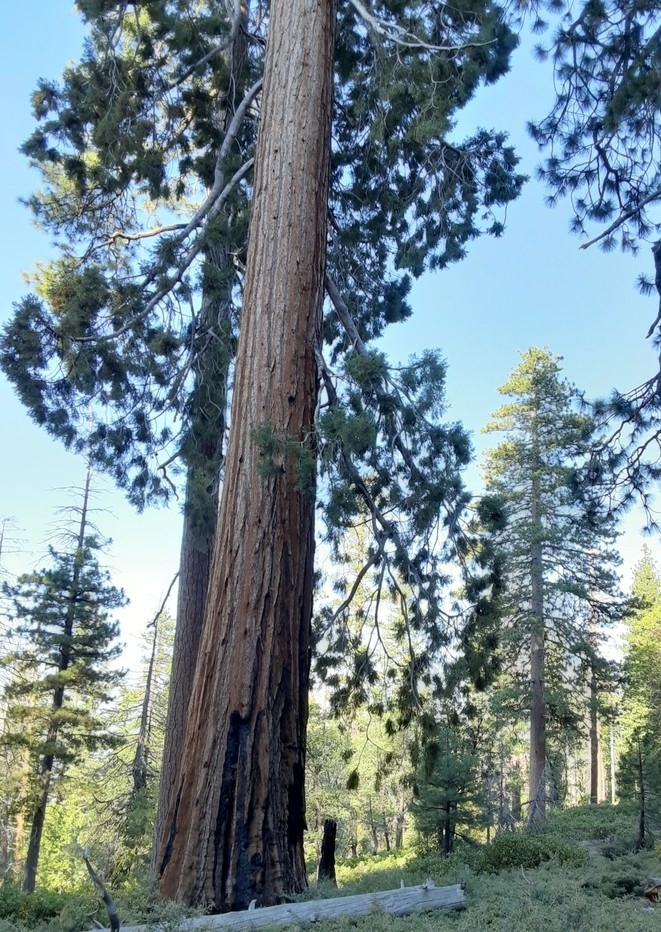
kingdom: Plantae
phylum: Tracheophyta
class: Pinopsida
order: Pinales
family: Cupressaceae
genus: Sequoiadendron
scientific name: Sequoiadendron giganteum
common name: Wellingtonia
